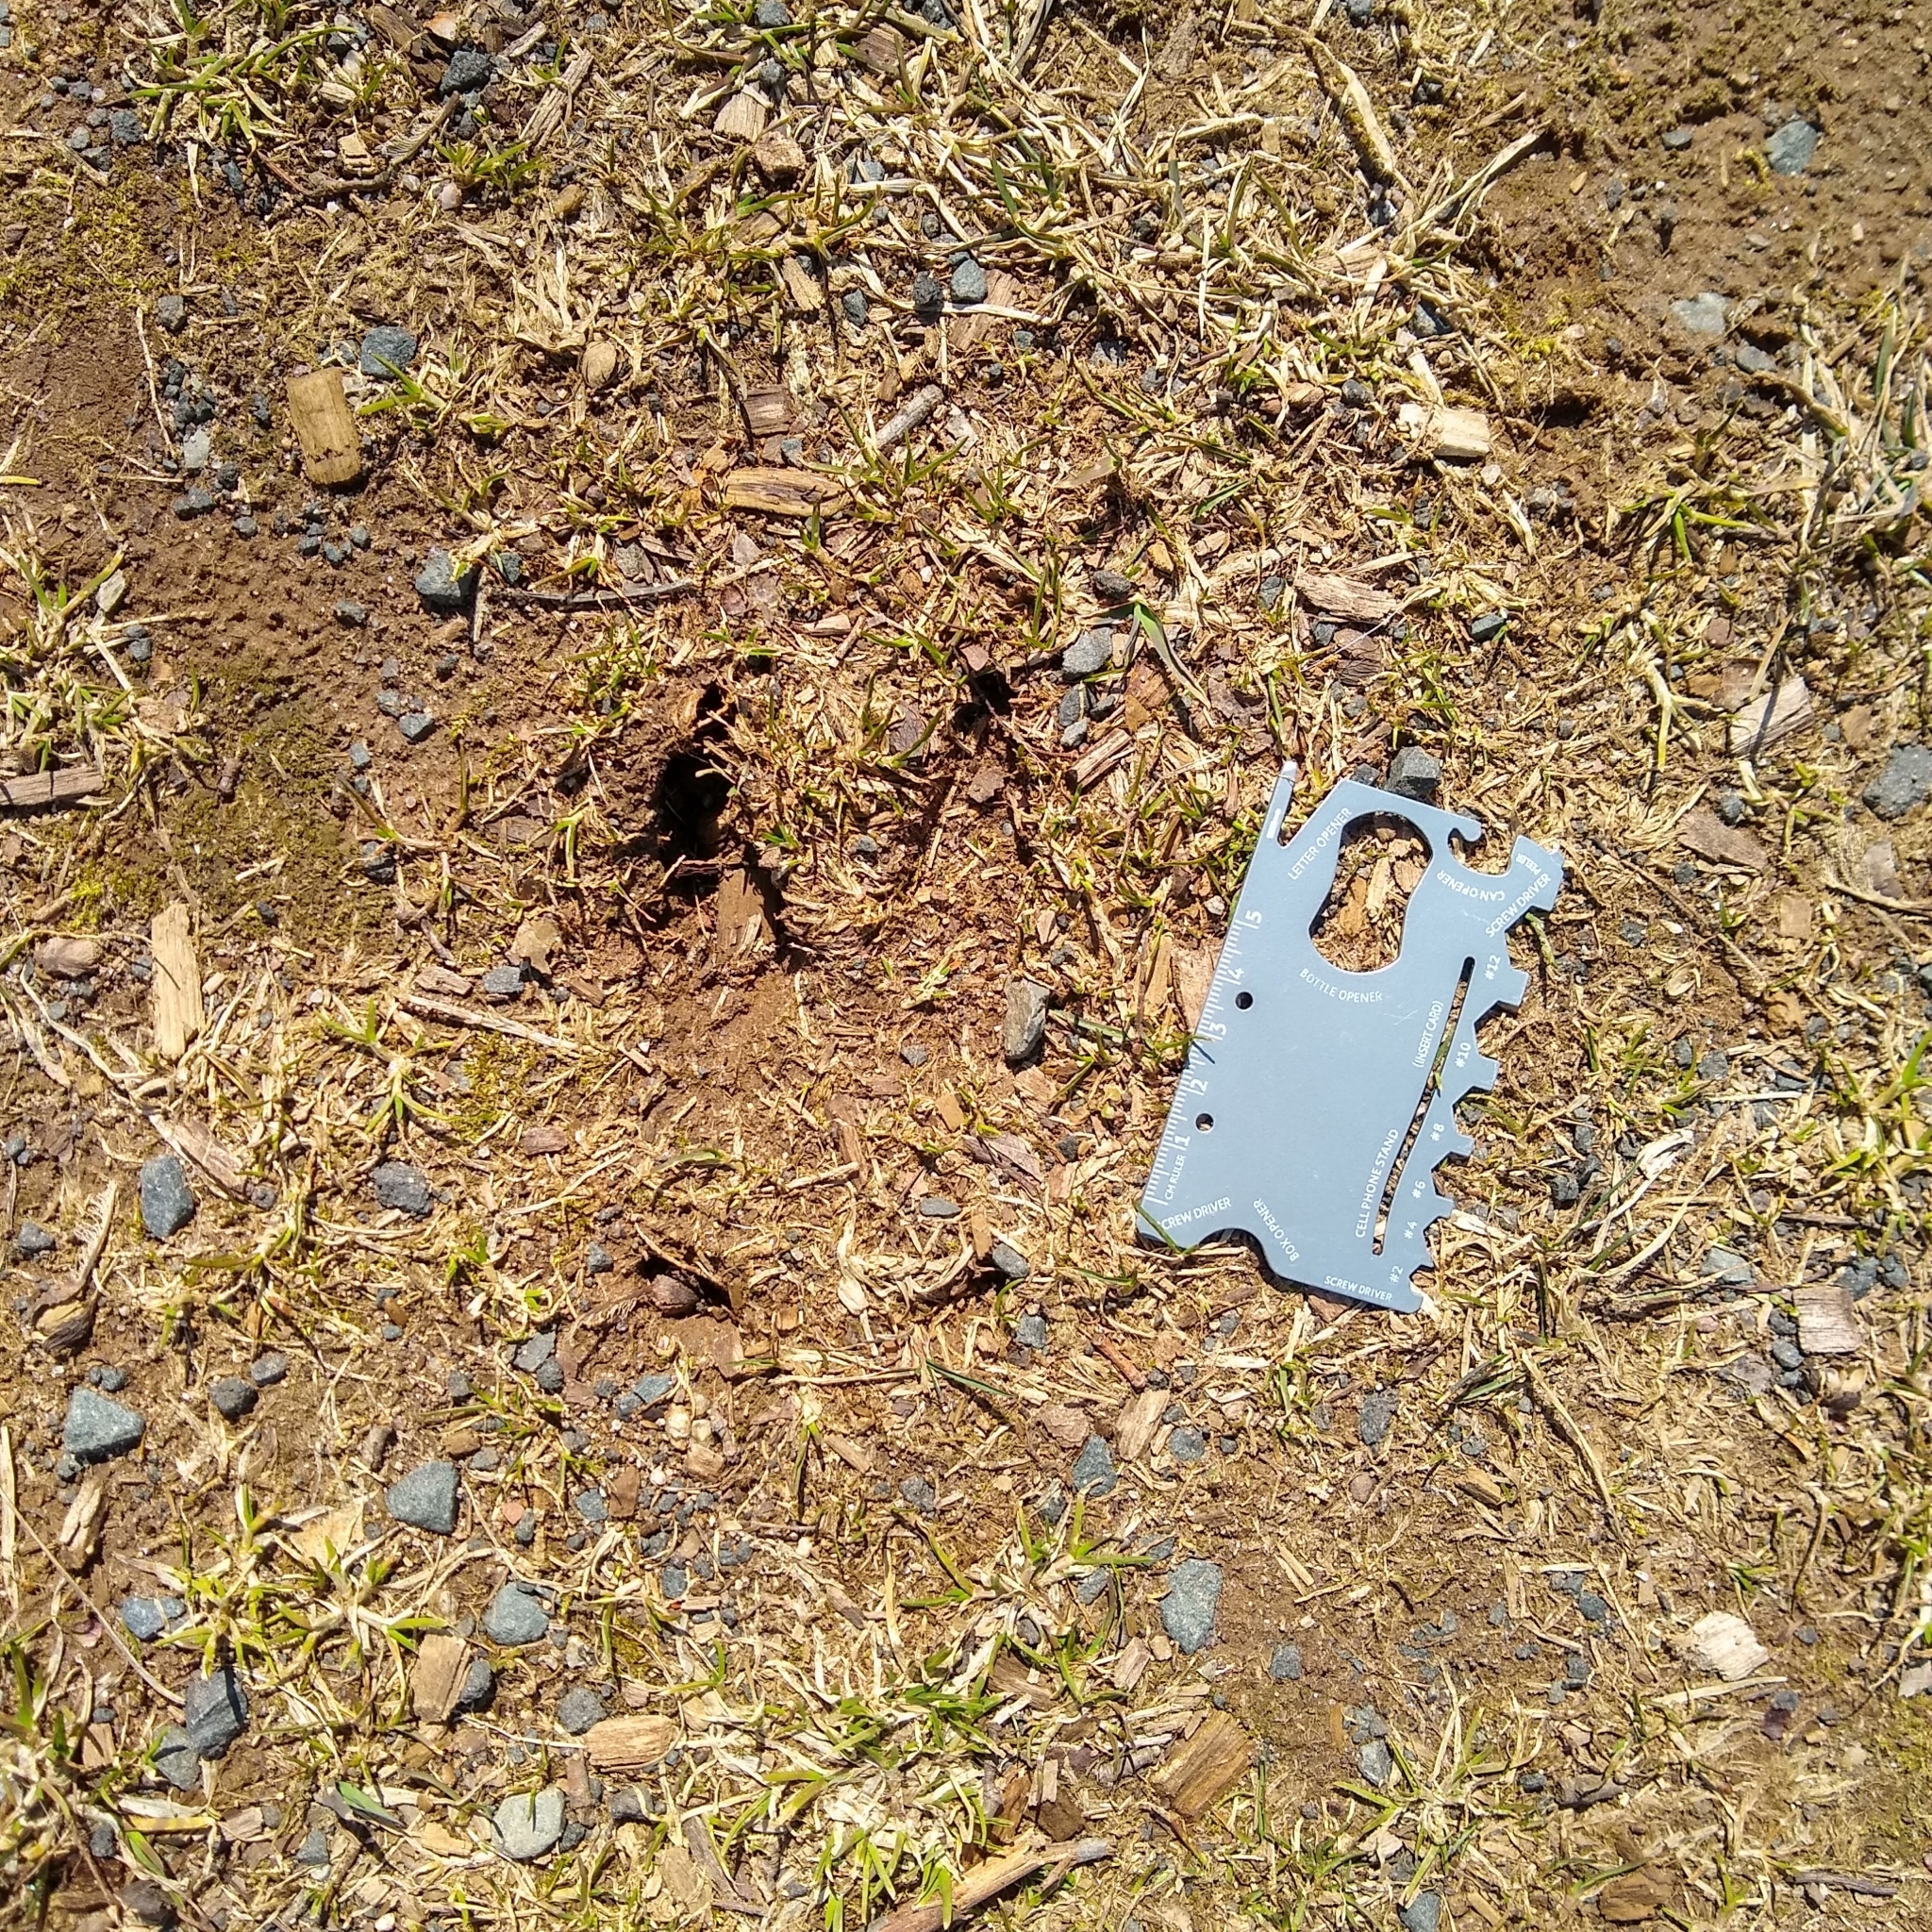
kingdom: Animalia
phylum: Chordata
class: Mammalia
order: Artiodactyla
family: Cervidae
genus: Odocoileus
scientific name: Odocoileus virginianus
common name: White-tailed deer
